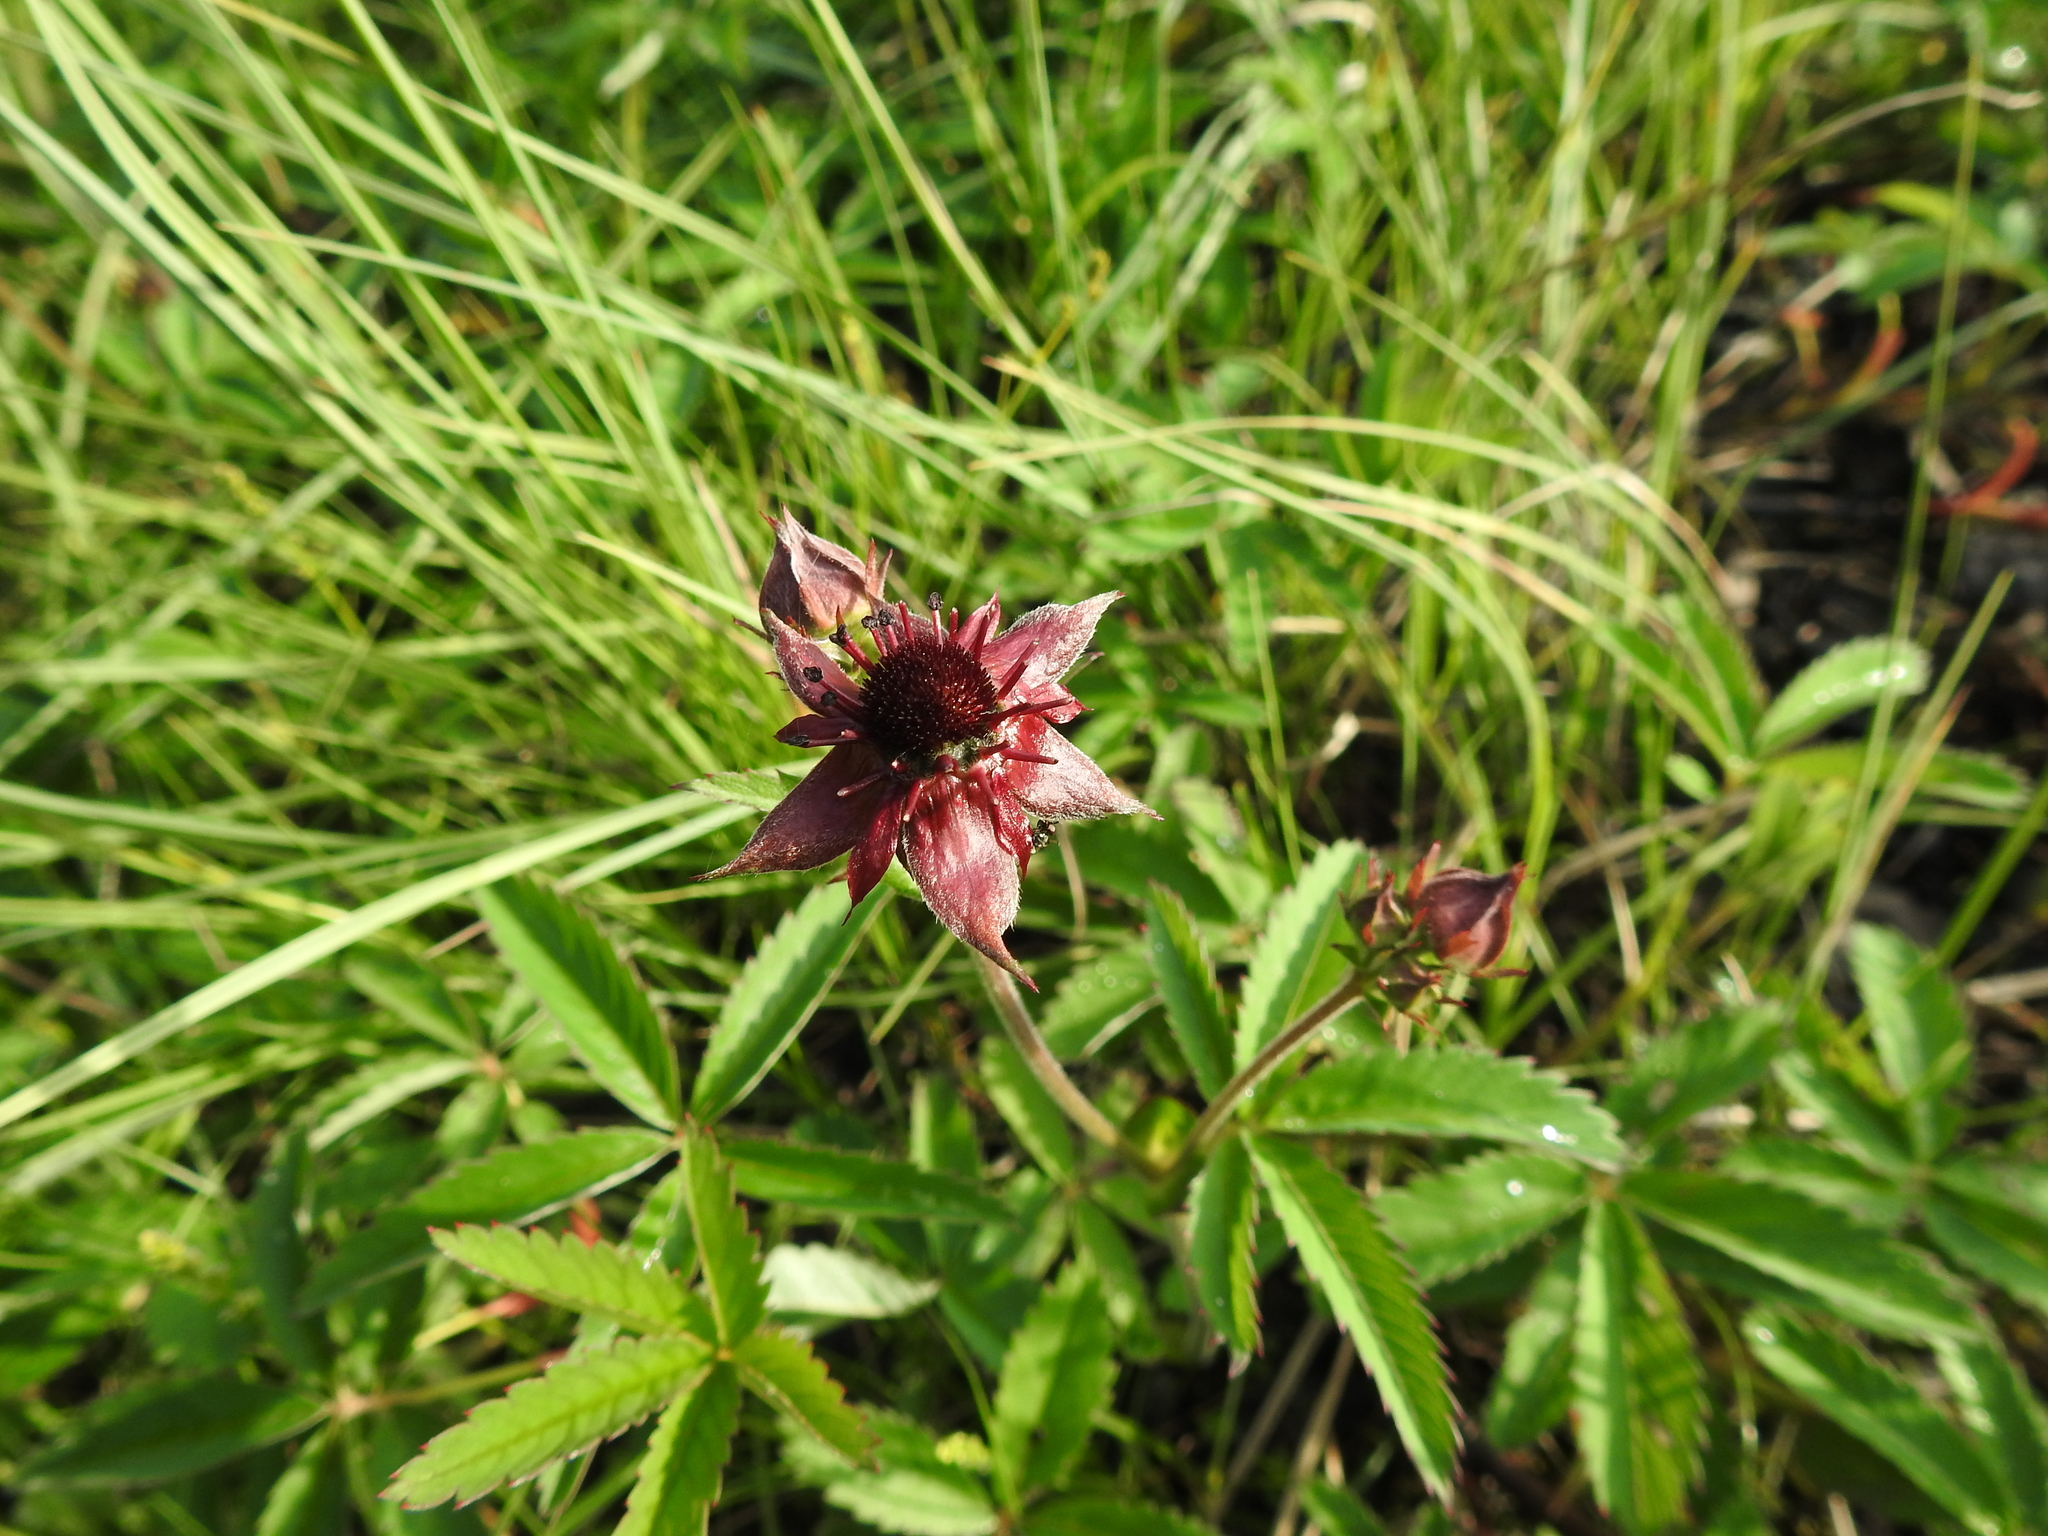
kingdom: Plantae
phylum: Tracheophyta
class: Magnoliopsida
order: Rosales
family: Rosaceae
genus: Comarum
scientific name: Comarum palustre
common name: Marsh cinquefoil
